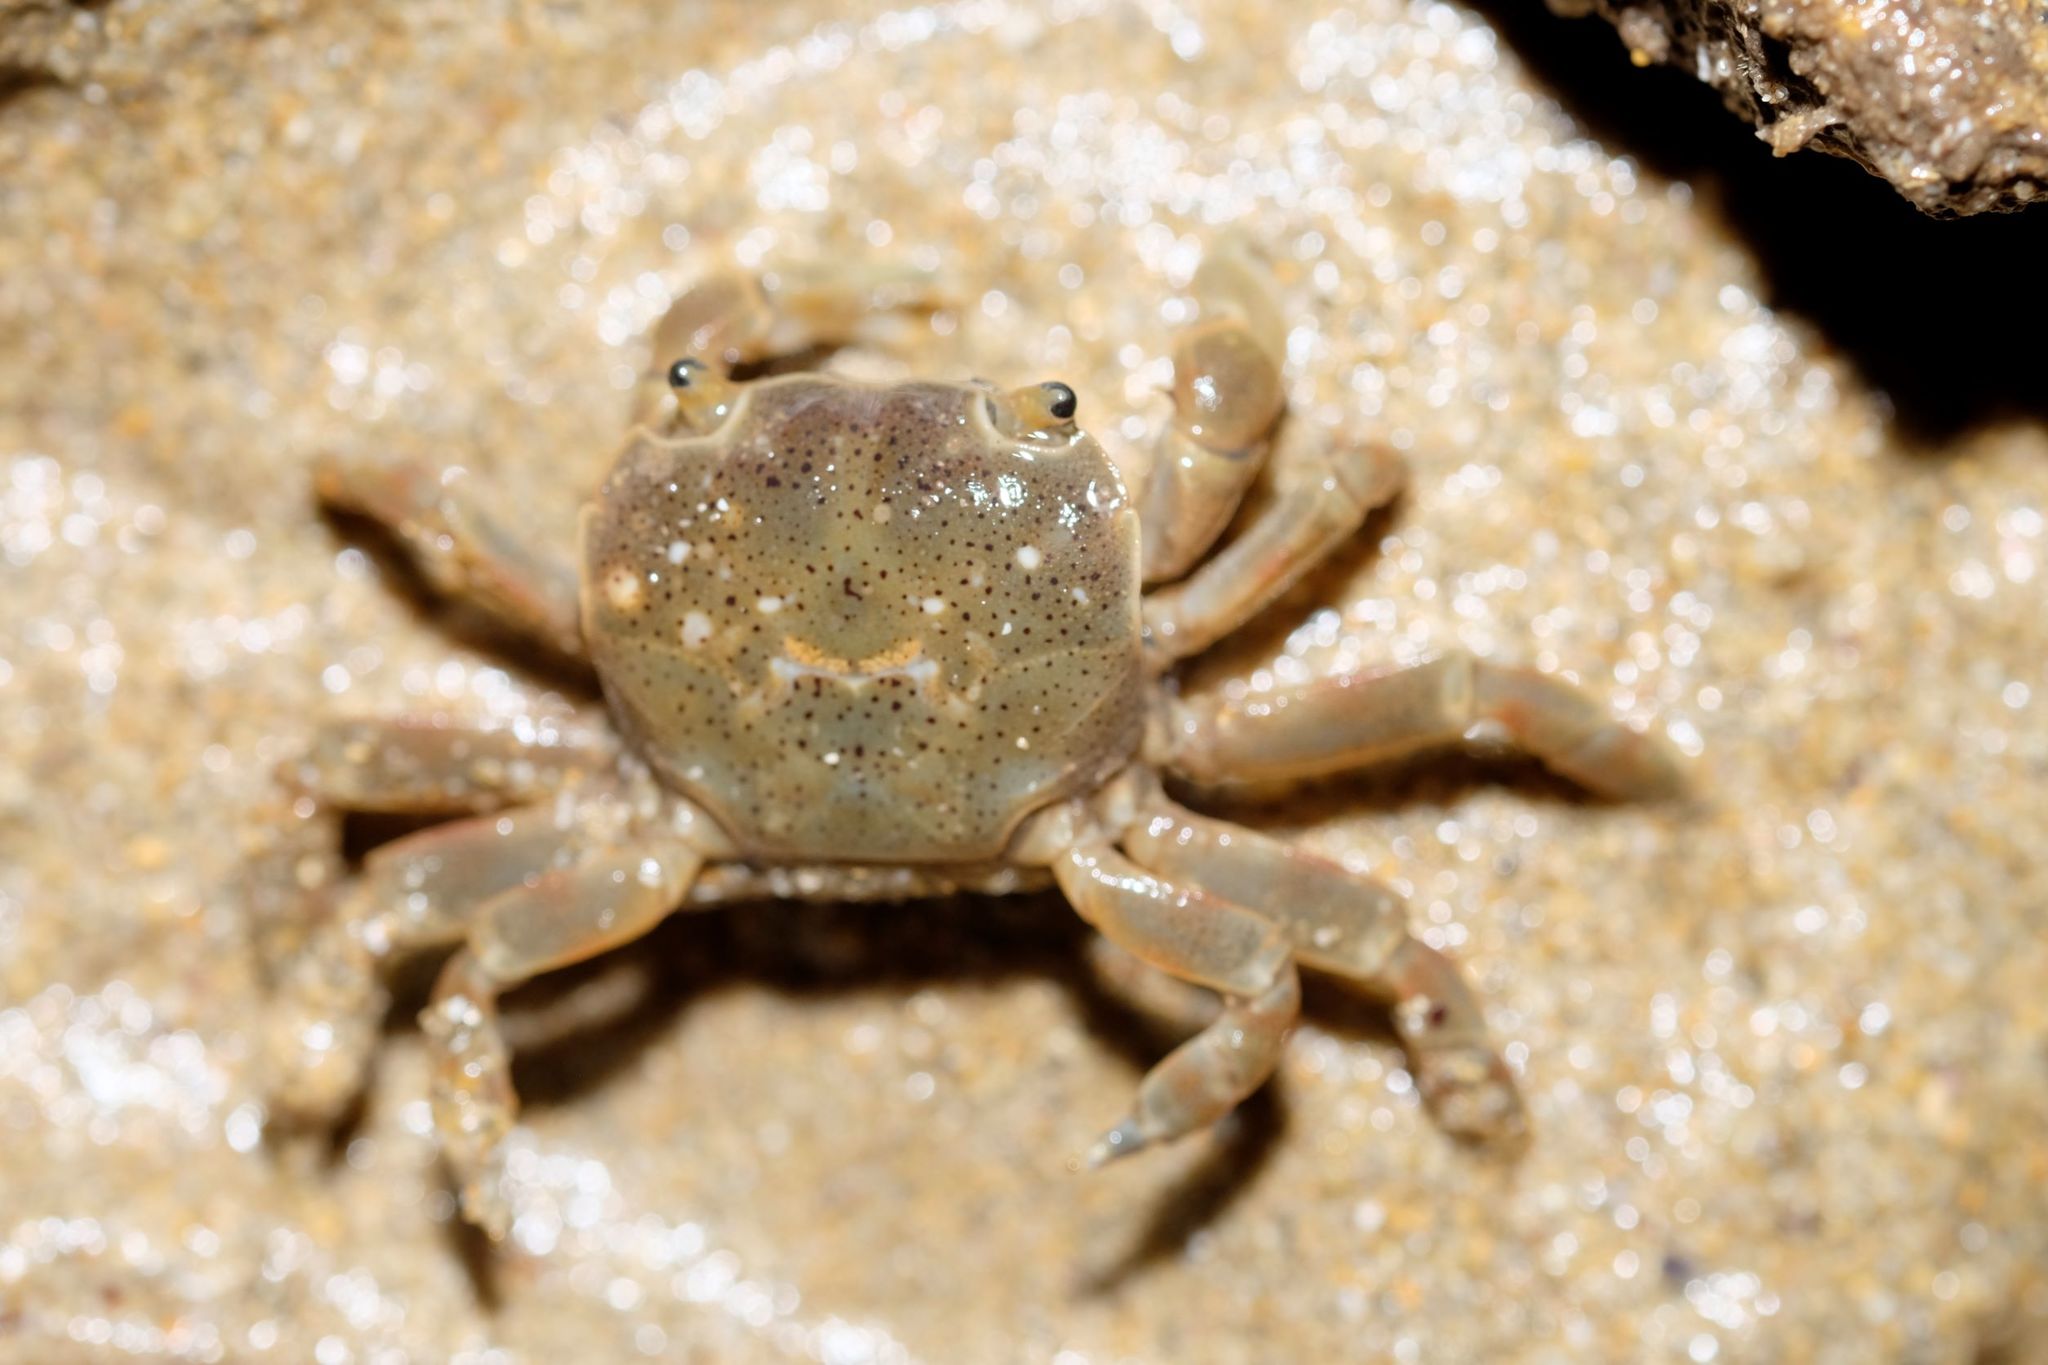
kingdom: Animalia
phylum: Arthropoda
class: Malacostraca
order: Decapoda
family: Varunidae
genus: Paragrapsus
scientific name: Paragrapsus quadridentatus
